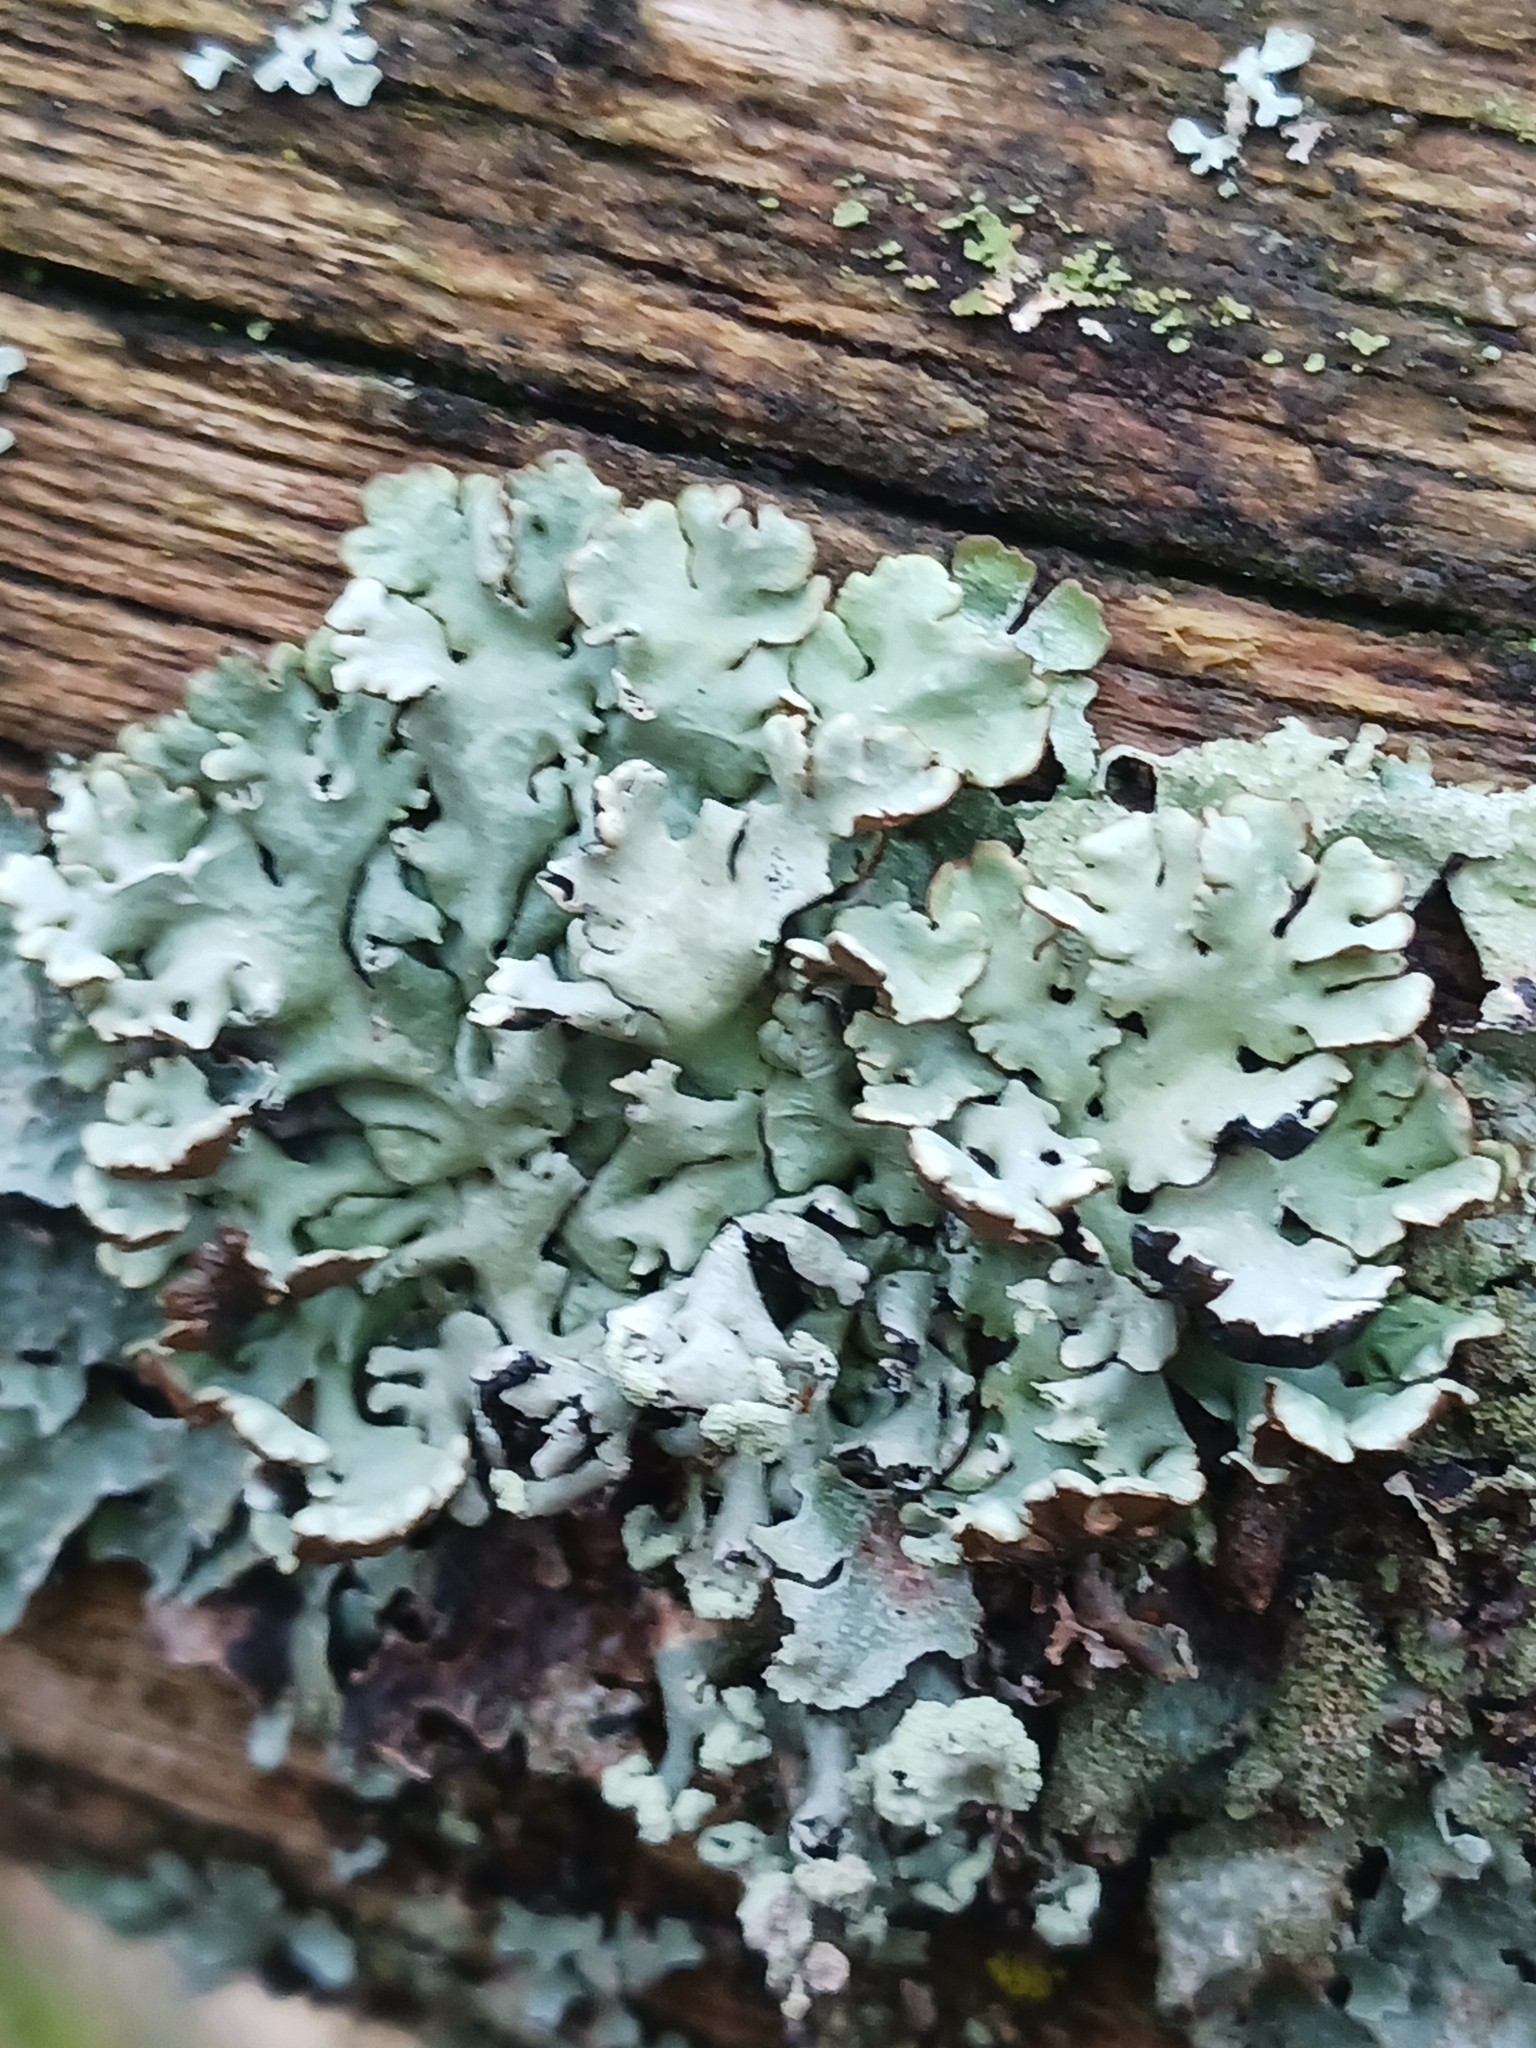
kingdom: Fungi
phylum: Ascomycota
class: Lecanoromycetes
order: Lecanorales
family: Parmeliaceae
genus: Hypogymnia
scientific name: Hypogymnia physodes
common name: Dark crottle
